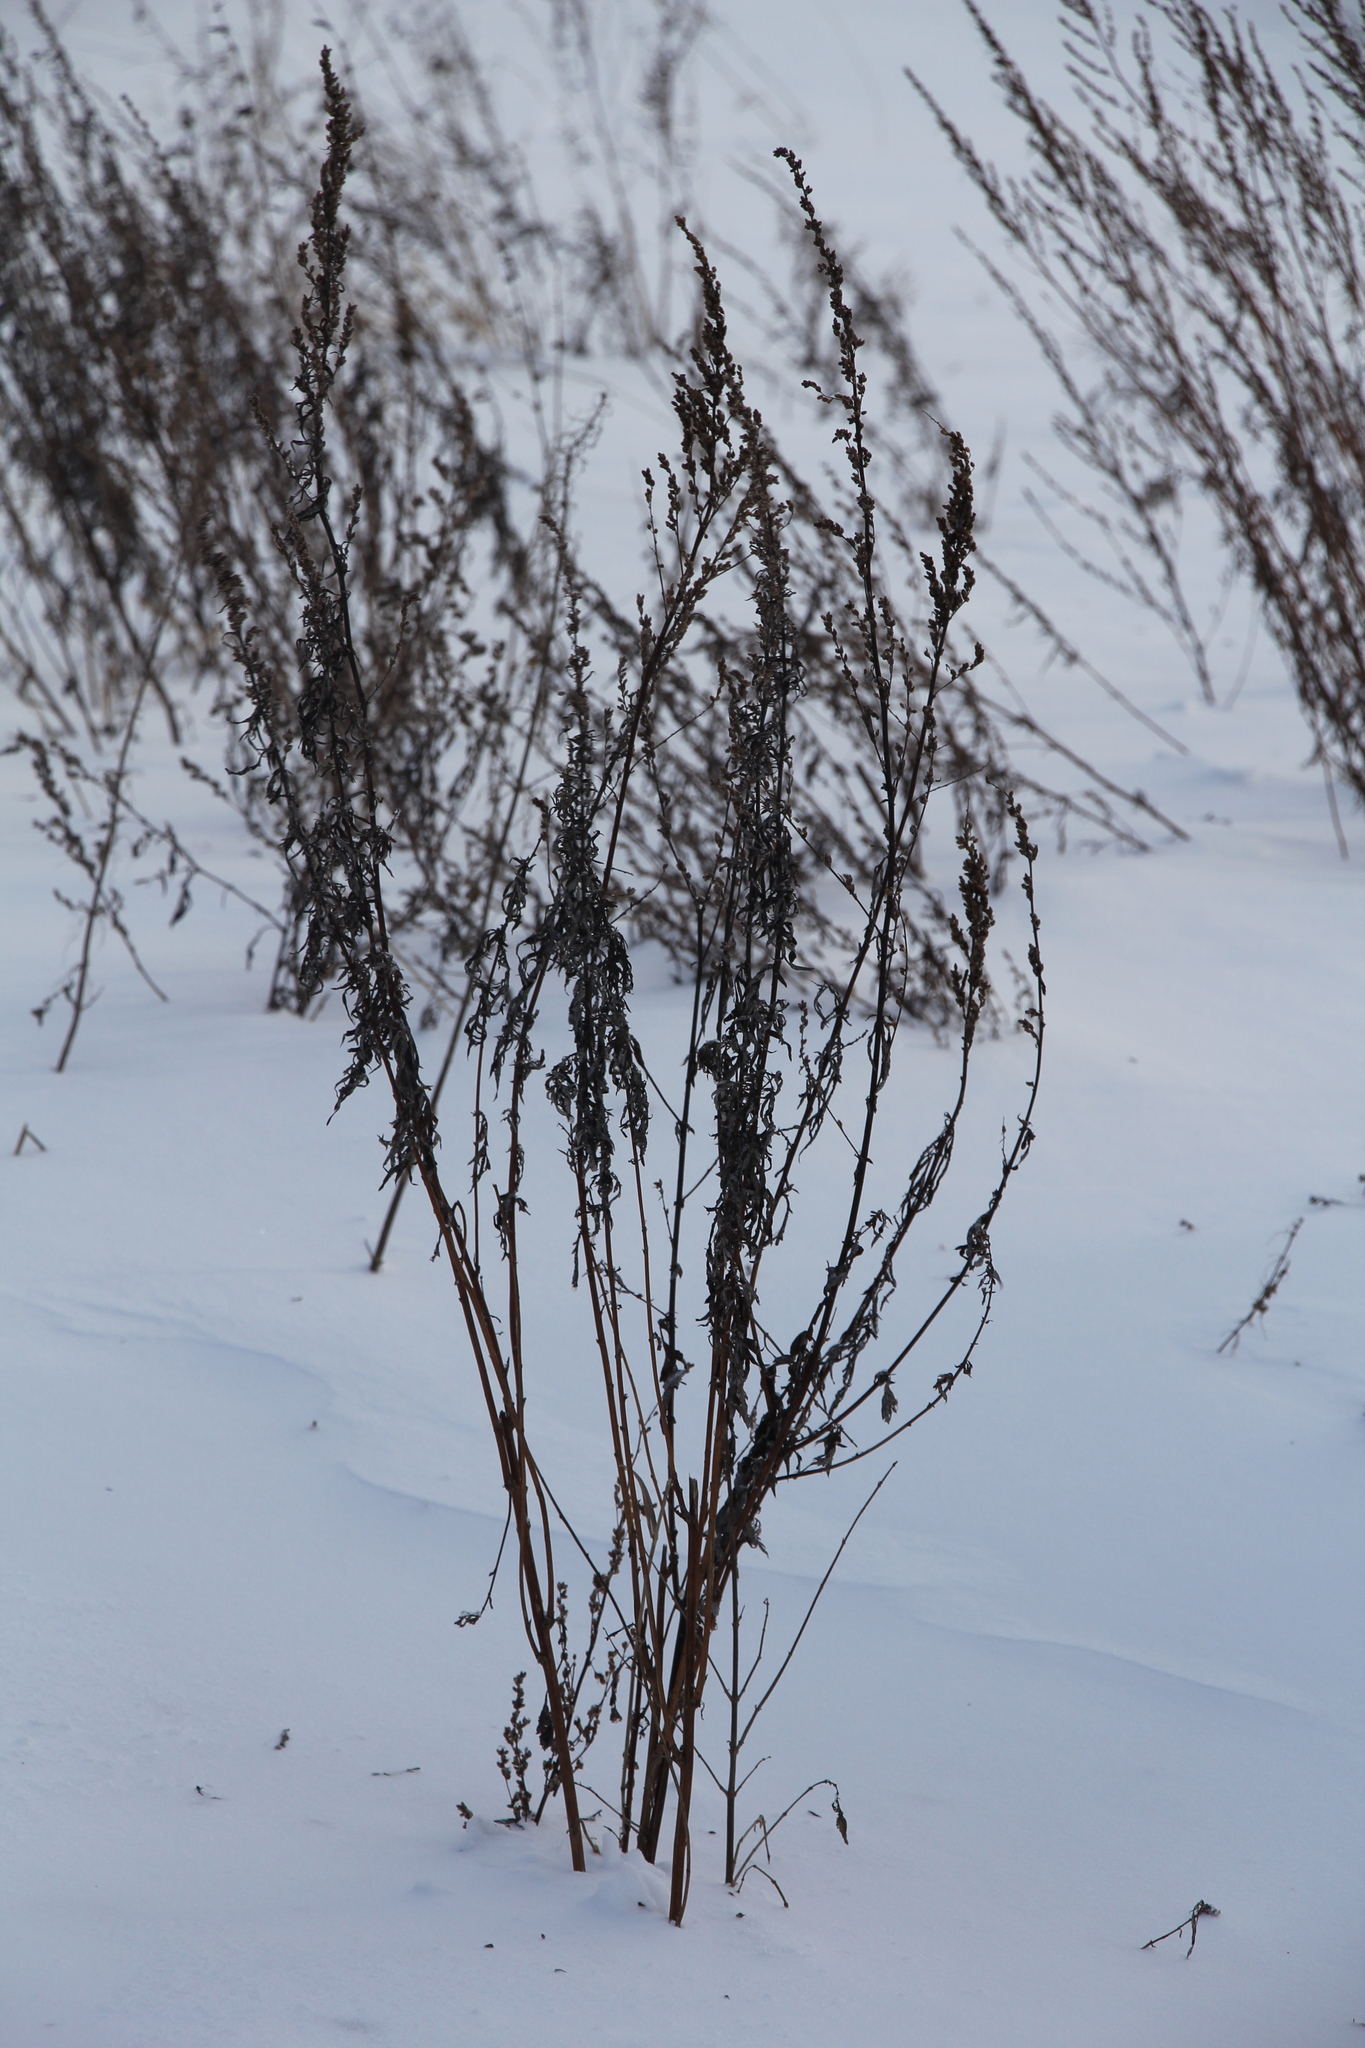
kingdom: Plantae
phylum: Tracheophyta
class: Magnoliopsida
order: Asterales
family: Asteraceae
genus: Artemisia
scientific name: Artemisia vulgaris
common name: Mugwort
